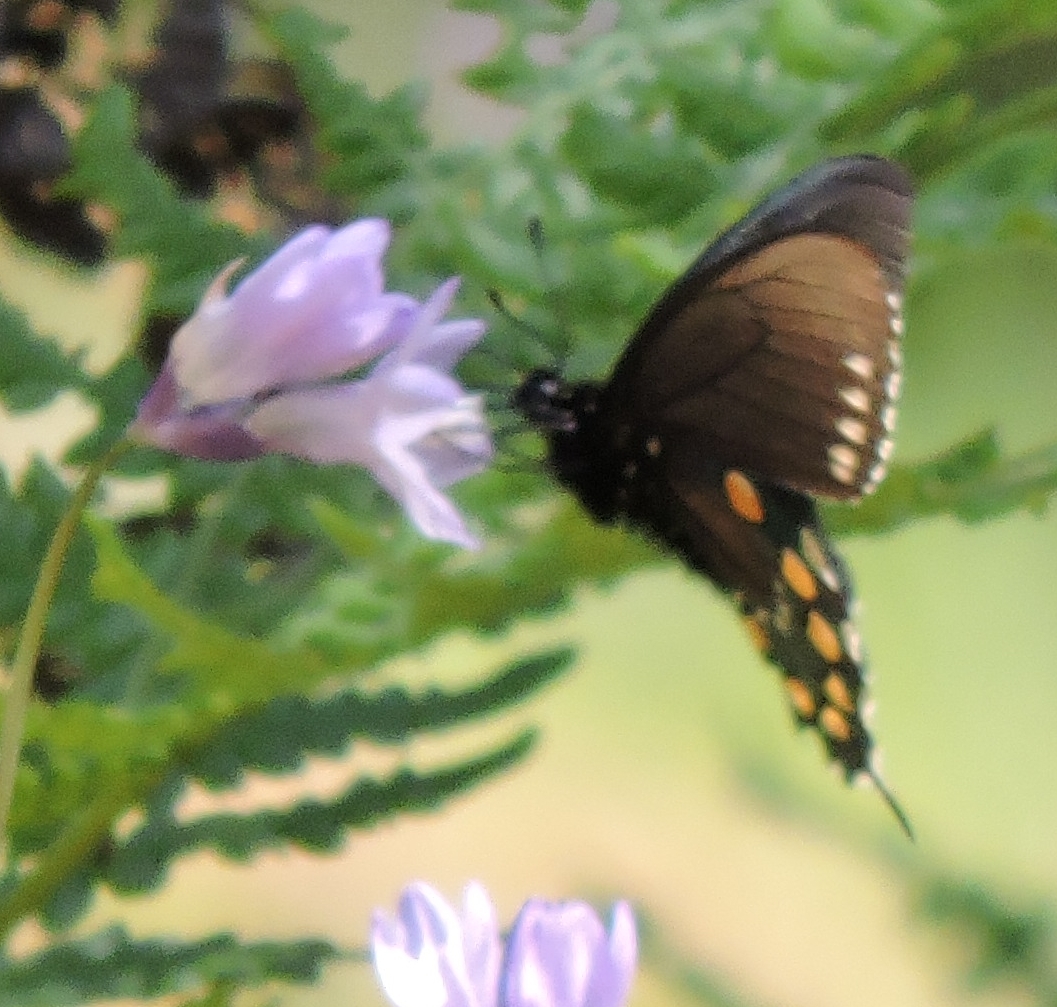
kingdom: Animalia
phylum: Arthropoda
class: Insecta
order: Lepidoptera
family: Papilionidae
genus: Battus
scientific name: Battus philenor
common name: Pipevine swallowtail
